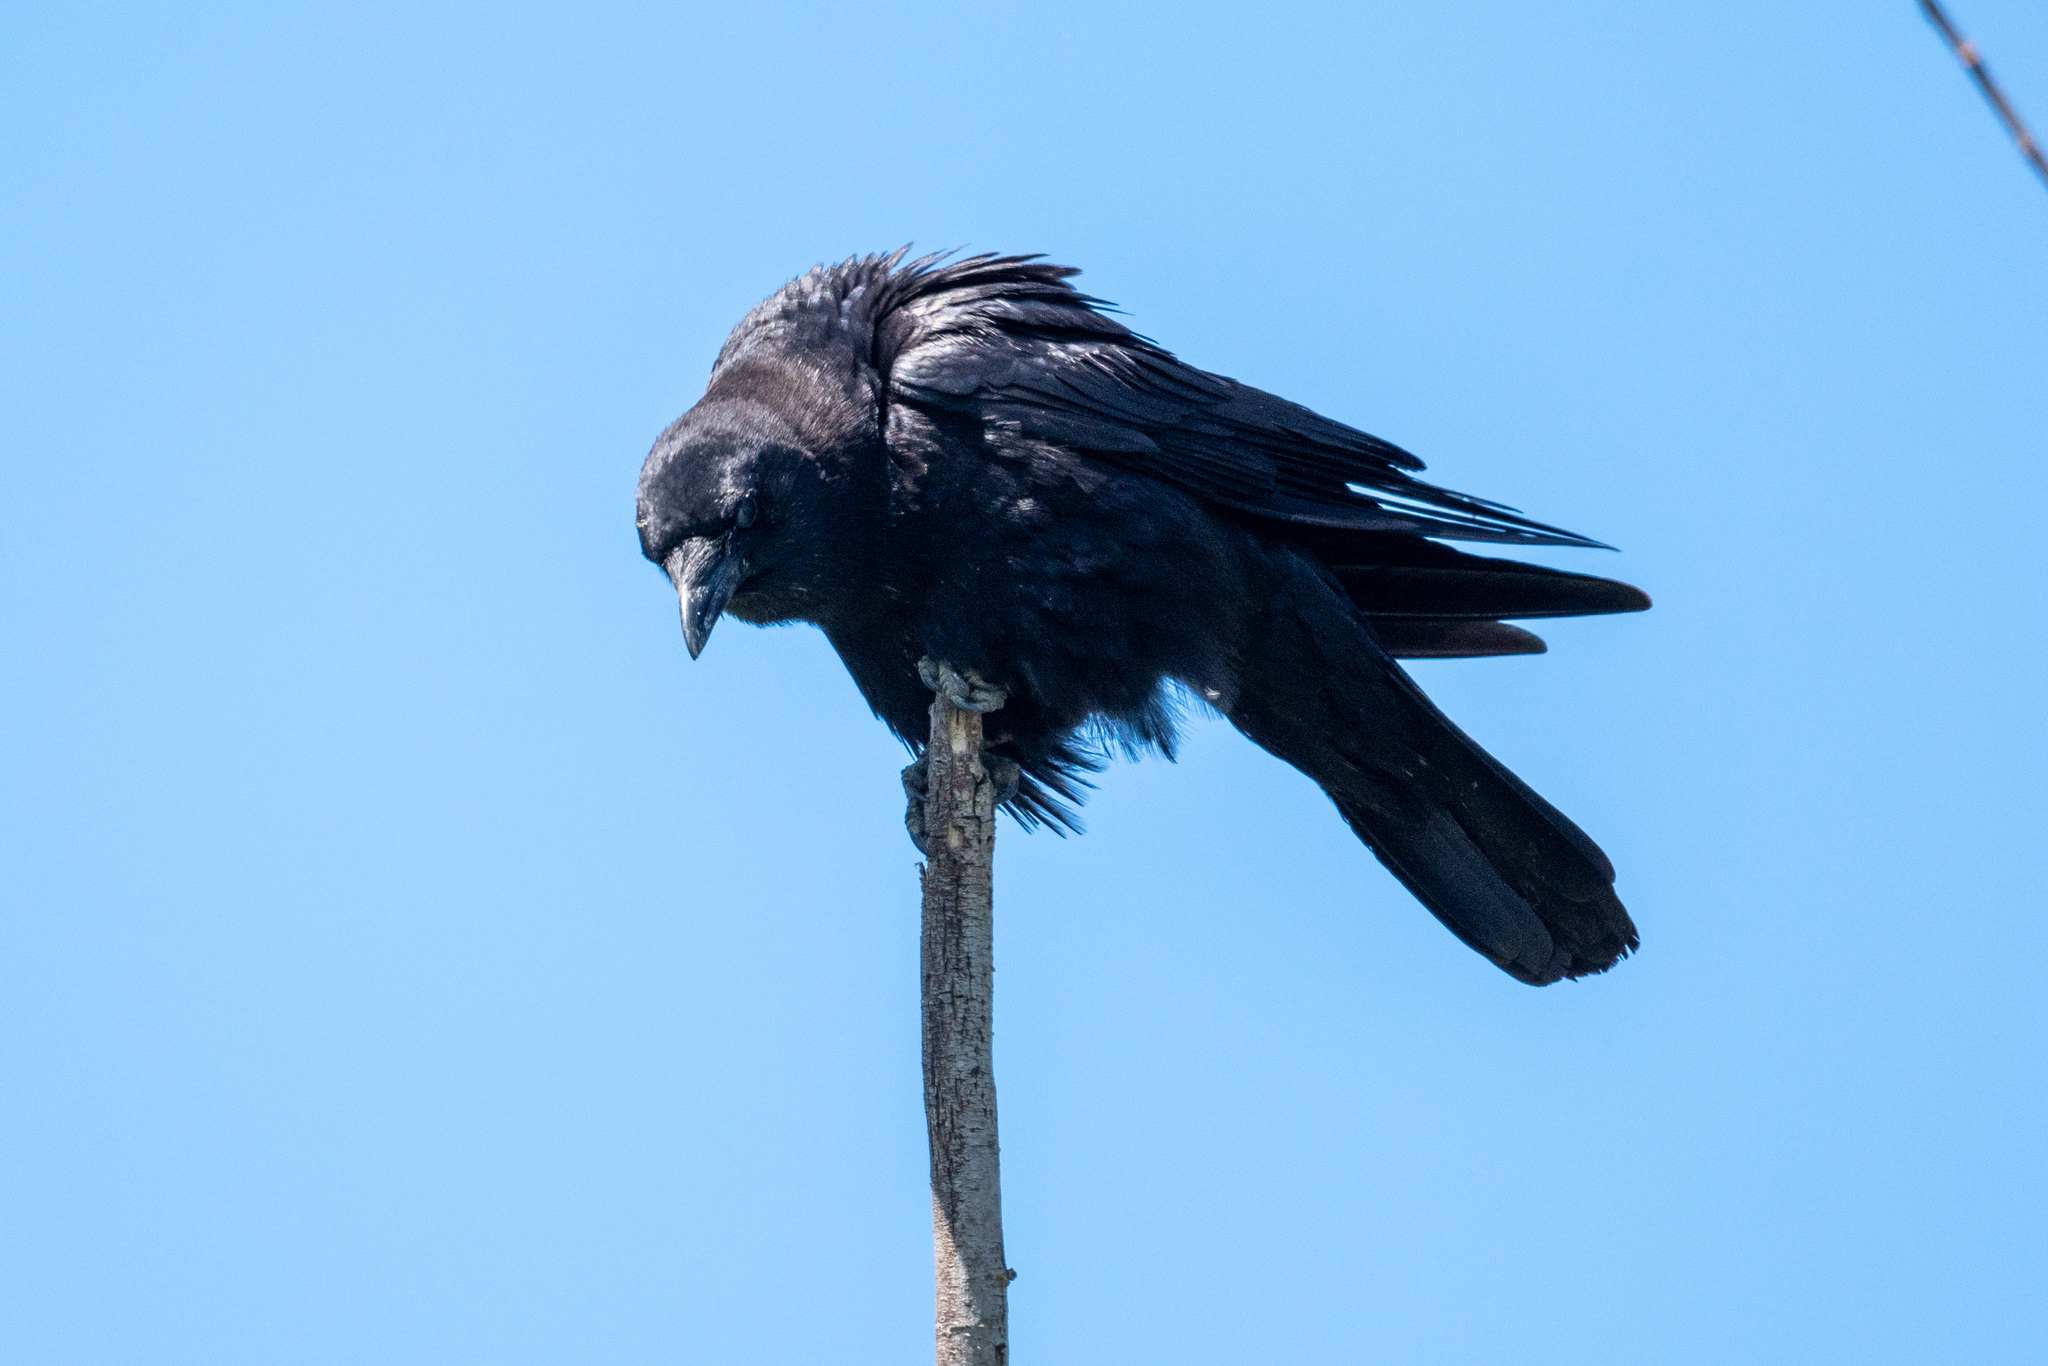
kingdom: Animalia
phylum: Chordata
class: Aves
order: Passeriformes
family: Corvidae
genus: Corvus
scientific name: Corvus brachyrhynchos
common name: American crow
